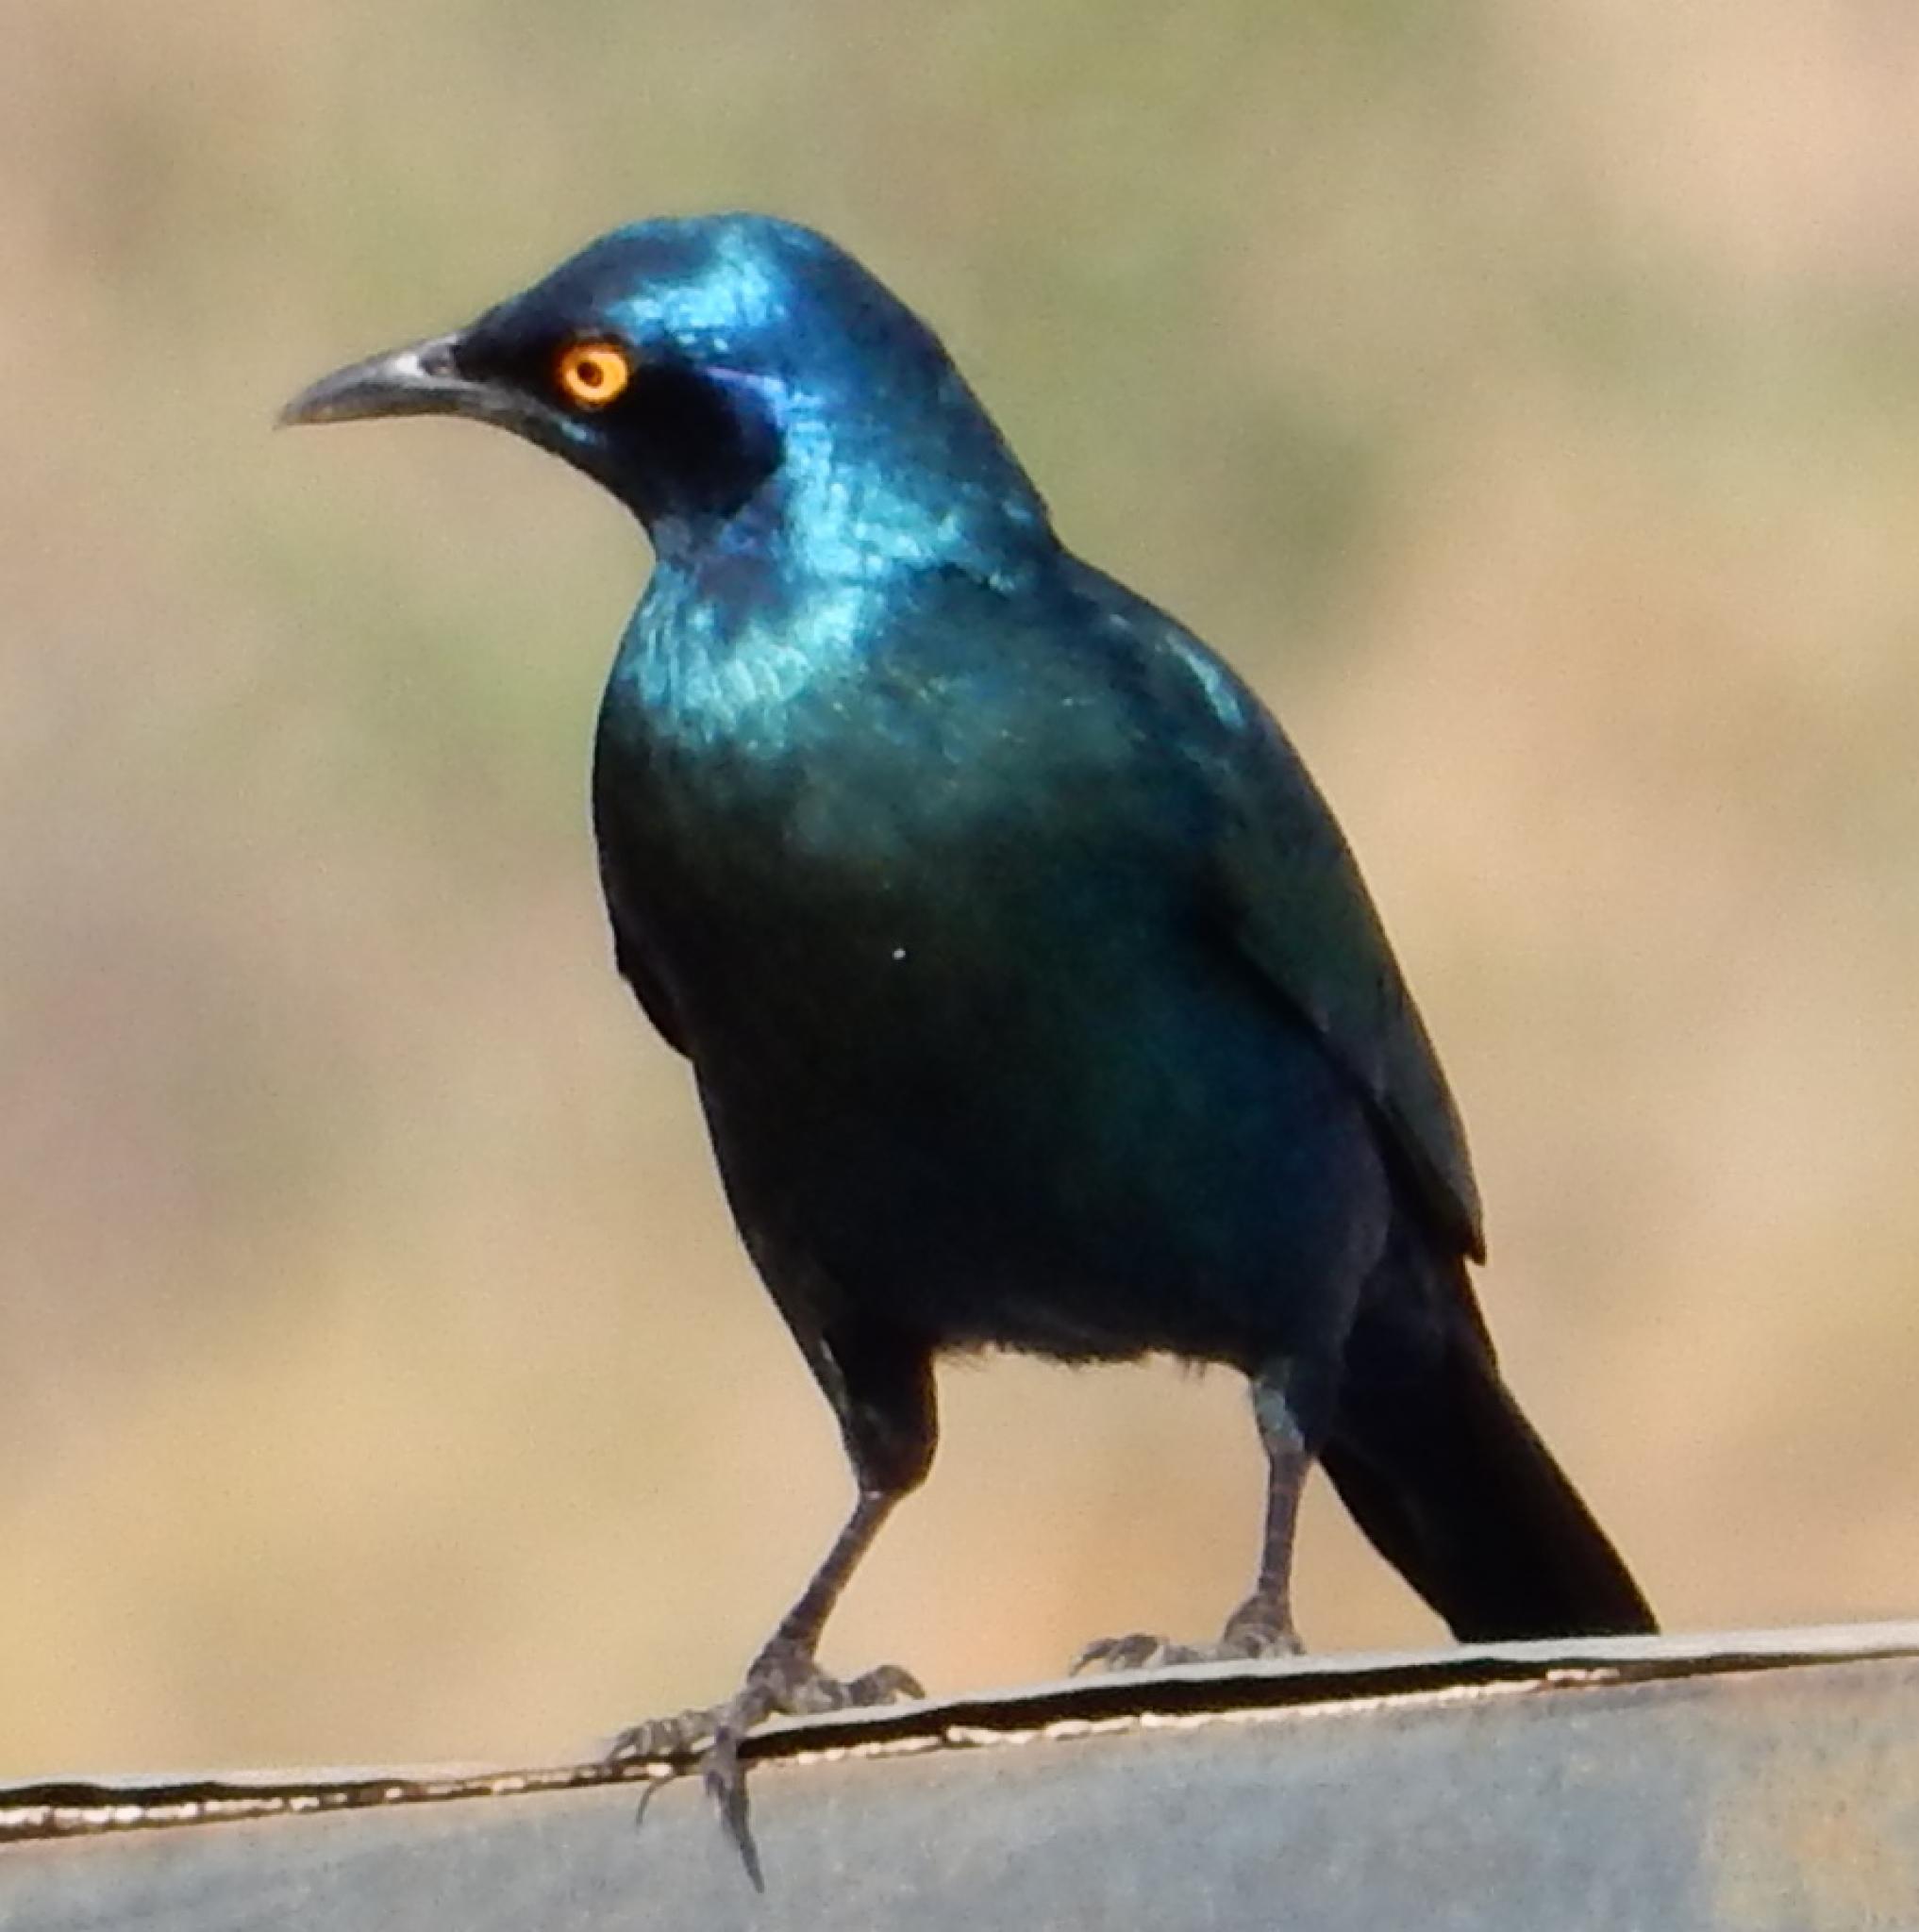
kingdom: Animalia
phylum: Chordata
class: Aves
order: Passeriformes
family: Sturnidae
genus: Lamprotornis
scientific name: Lamprotornis nitens
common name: Cape starling
